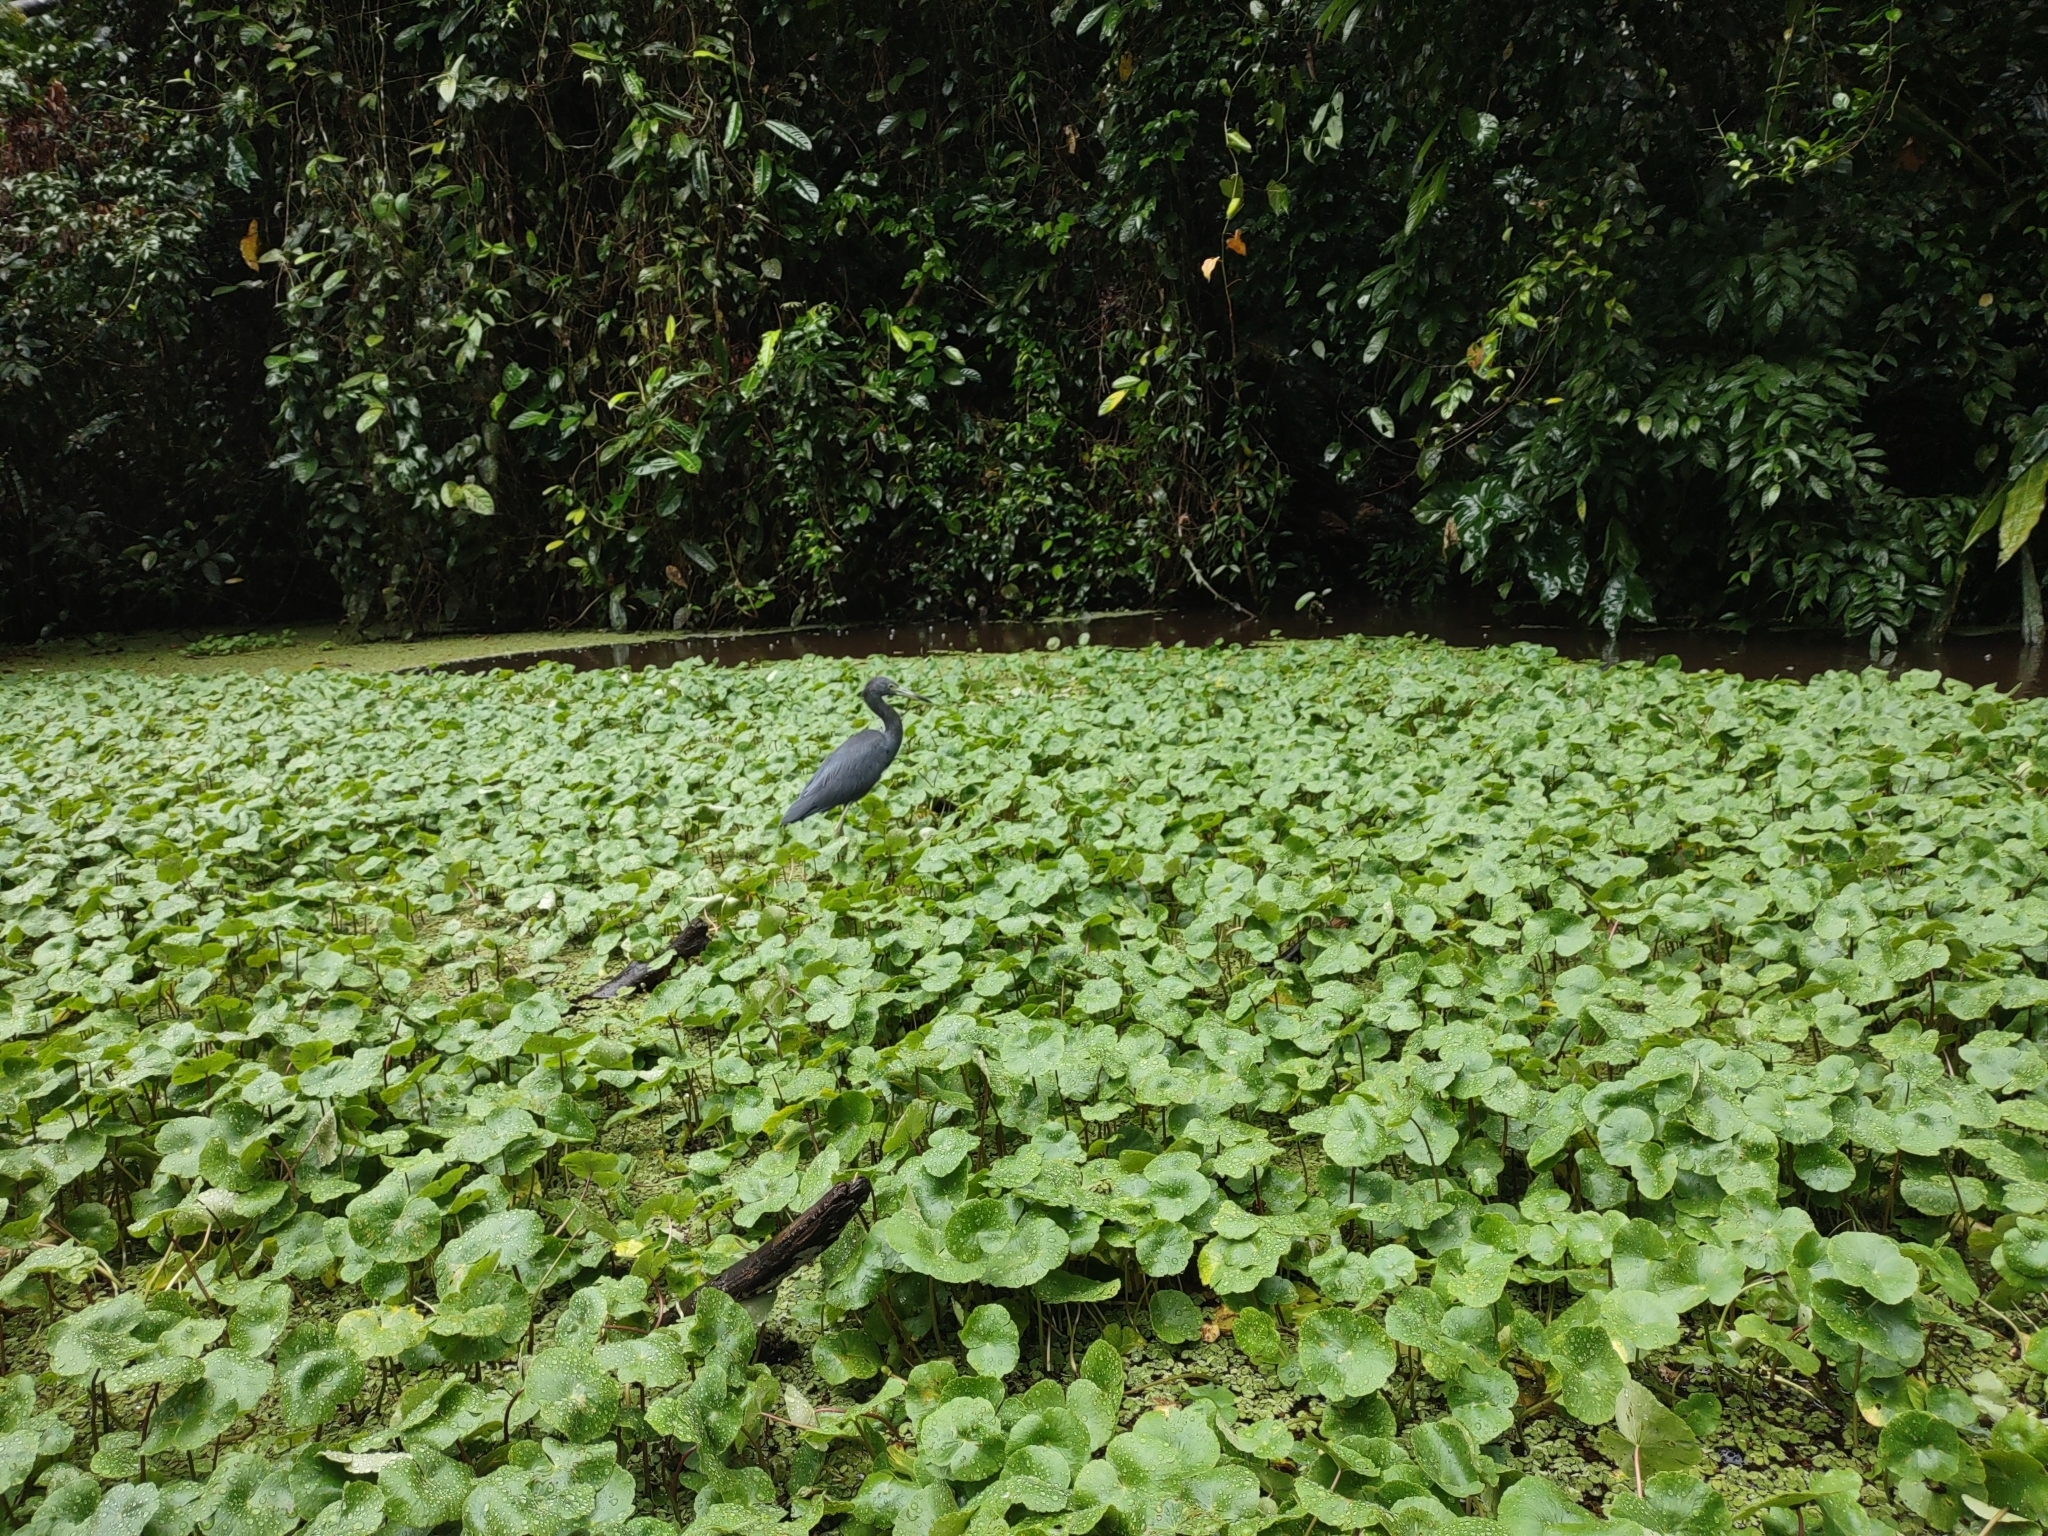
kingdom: Animalia
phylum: Chordata
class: Aves
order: Pelecaniformes
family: Ardeidae
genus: Egretta
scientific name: Egretta caerulea
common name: Little blue heron
